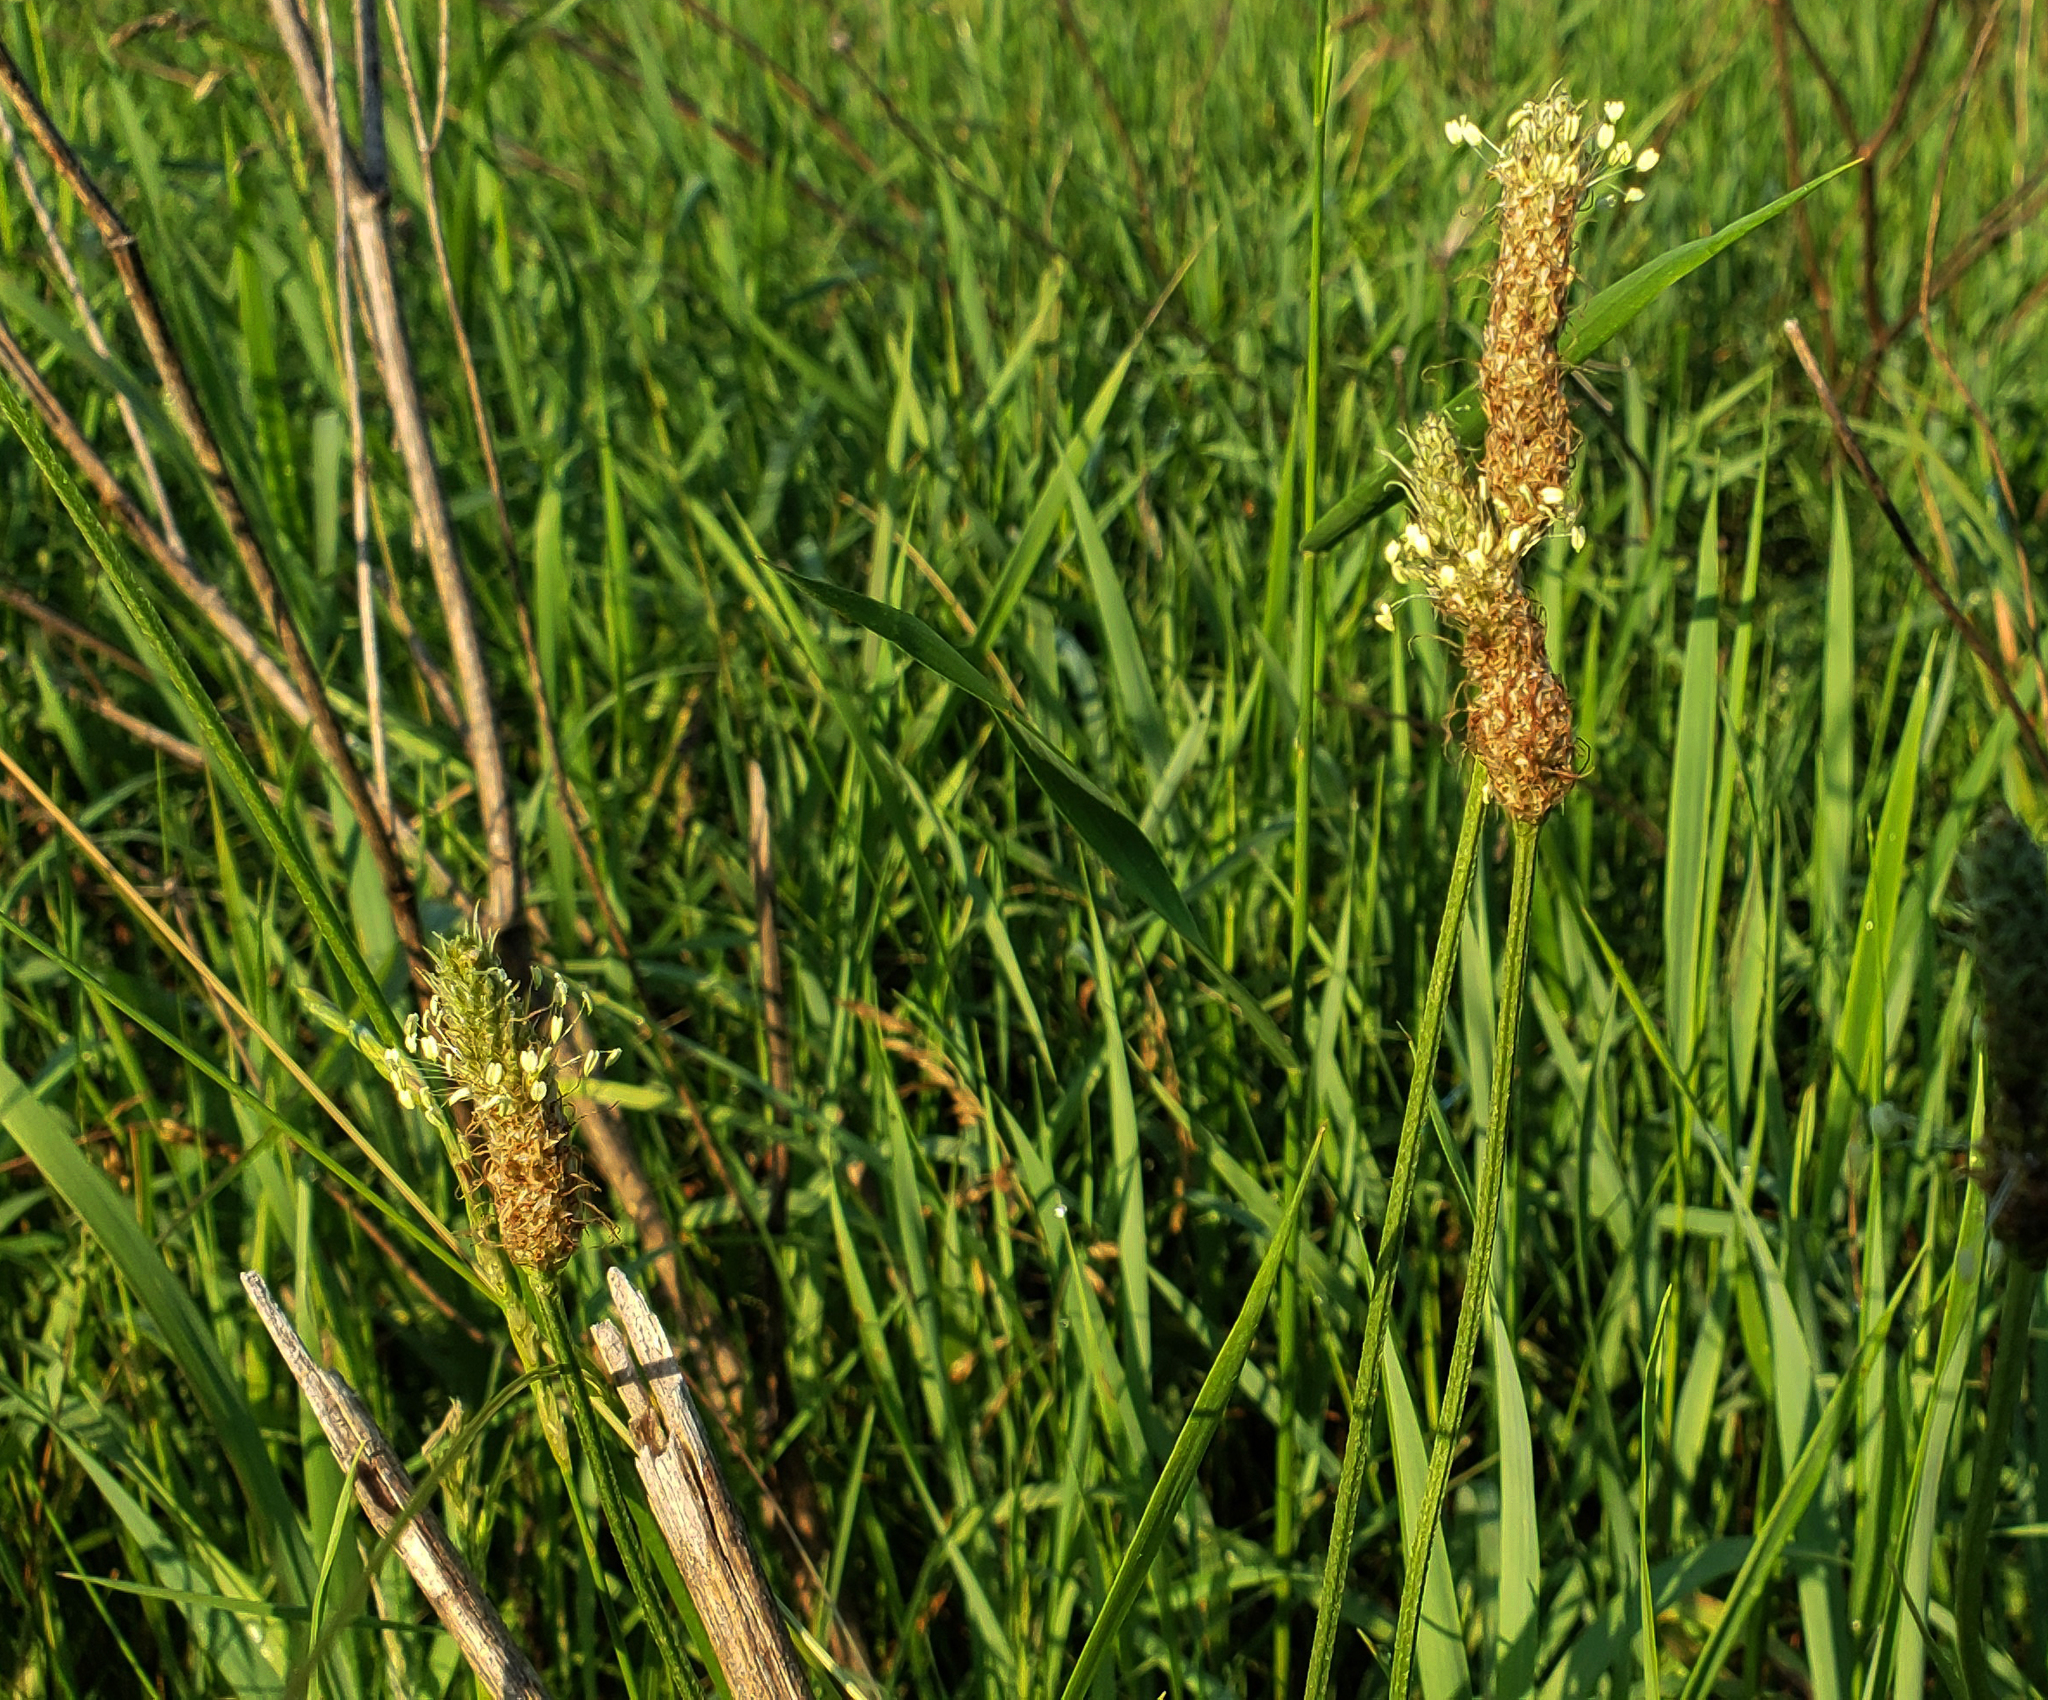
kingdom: Plantae
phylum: Tracheophyta
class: Magnoliopsida
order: Lamiales
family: Plantaginaceae
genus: Plantago
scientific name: Plantago lanceolata
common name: Ribwort plantain
